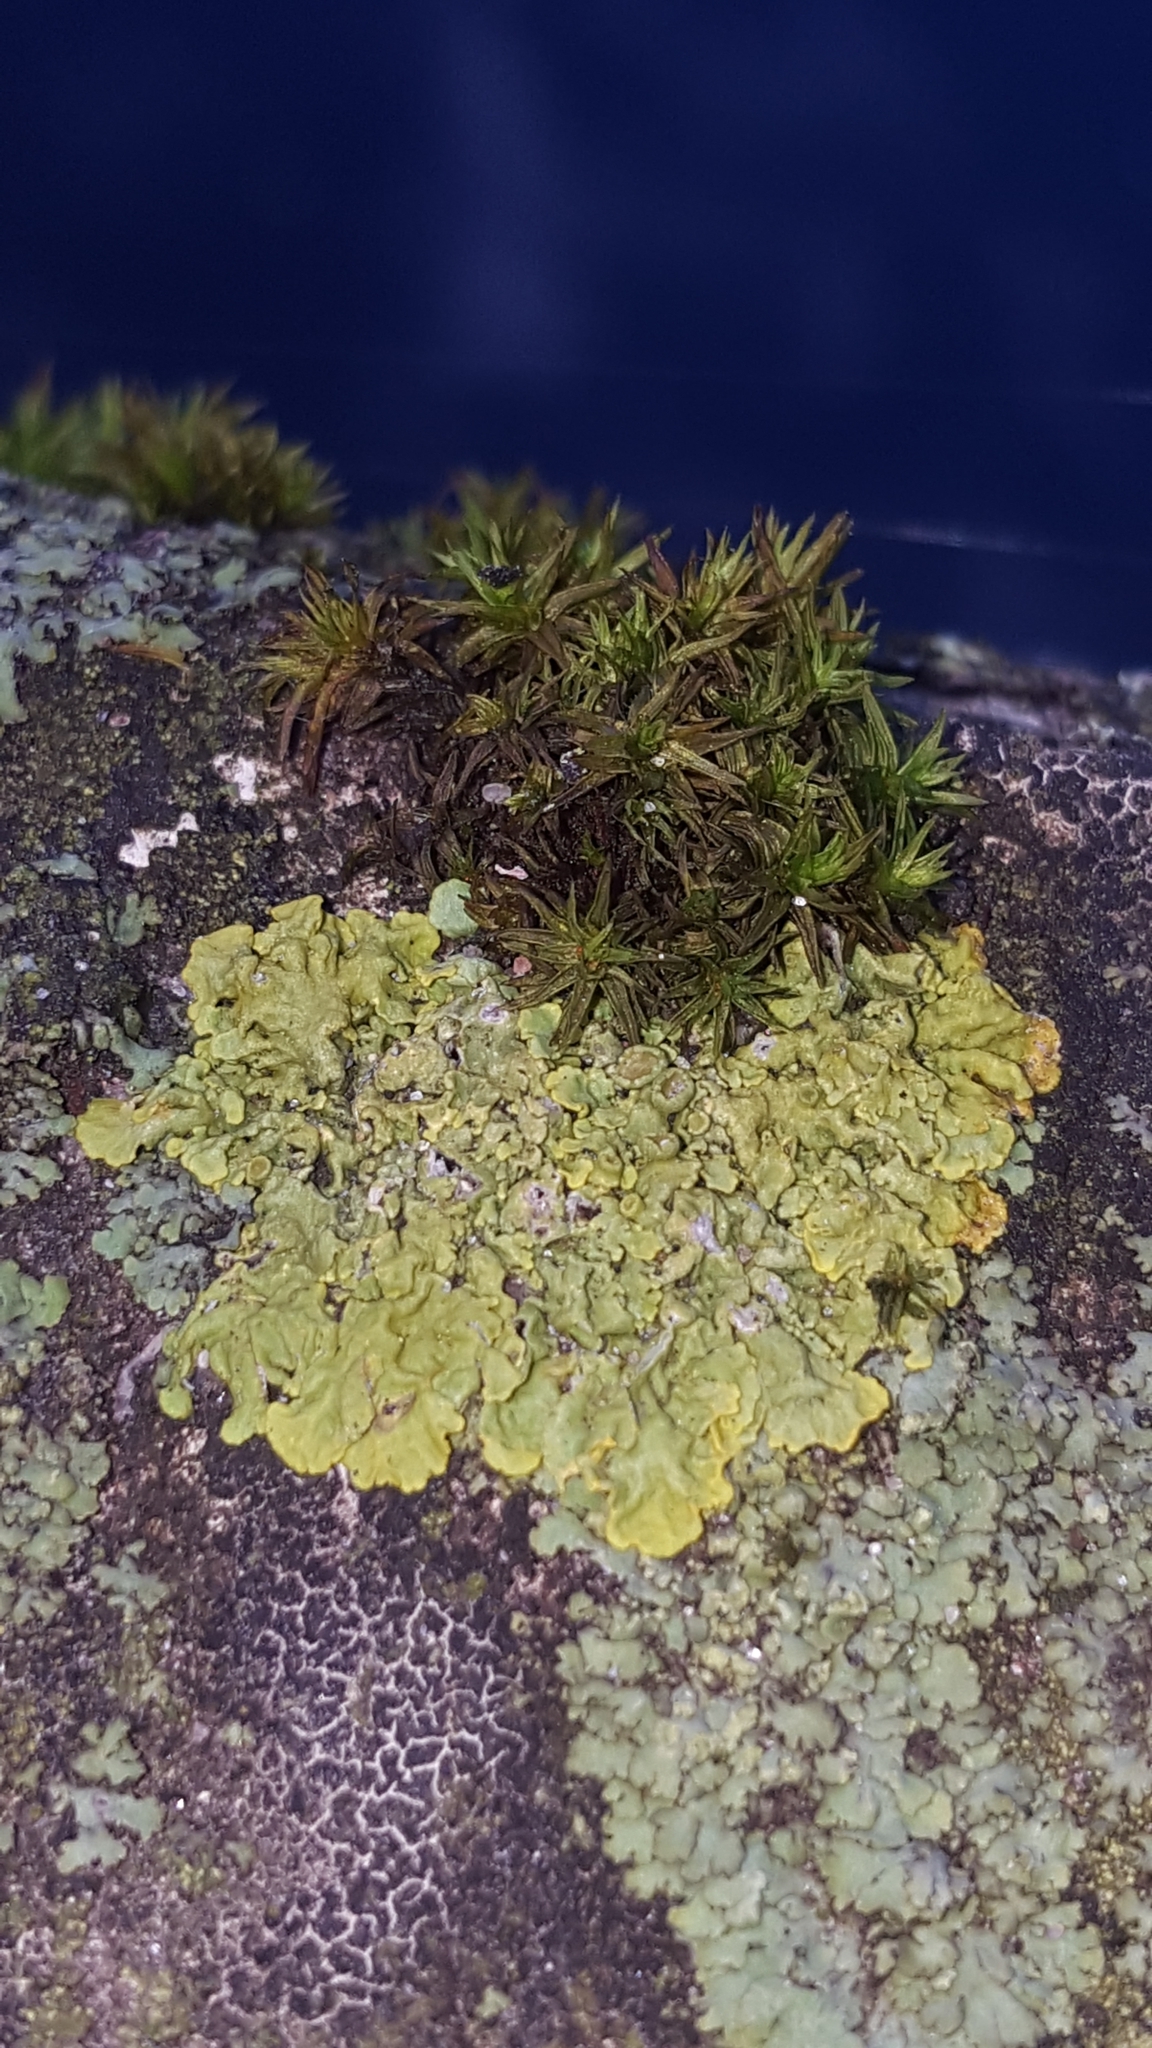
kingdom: Fungi
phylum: Ascomycota
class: Lecanoromycetes
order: Teloschistales
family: Teloschistaceae
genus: Xanthoria
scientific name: Xanthoria parietina
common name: Common orange lichen
